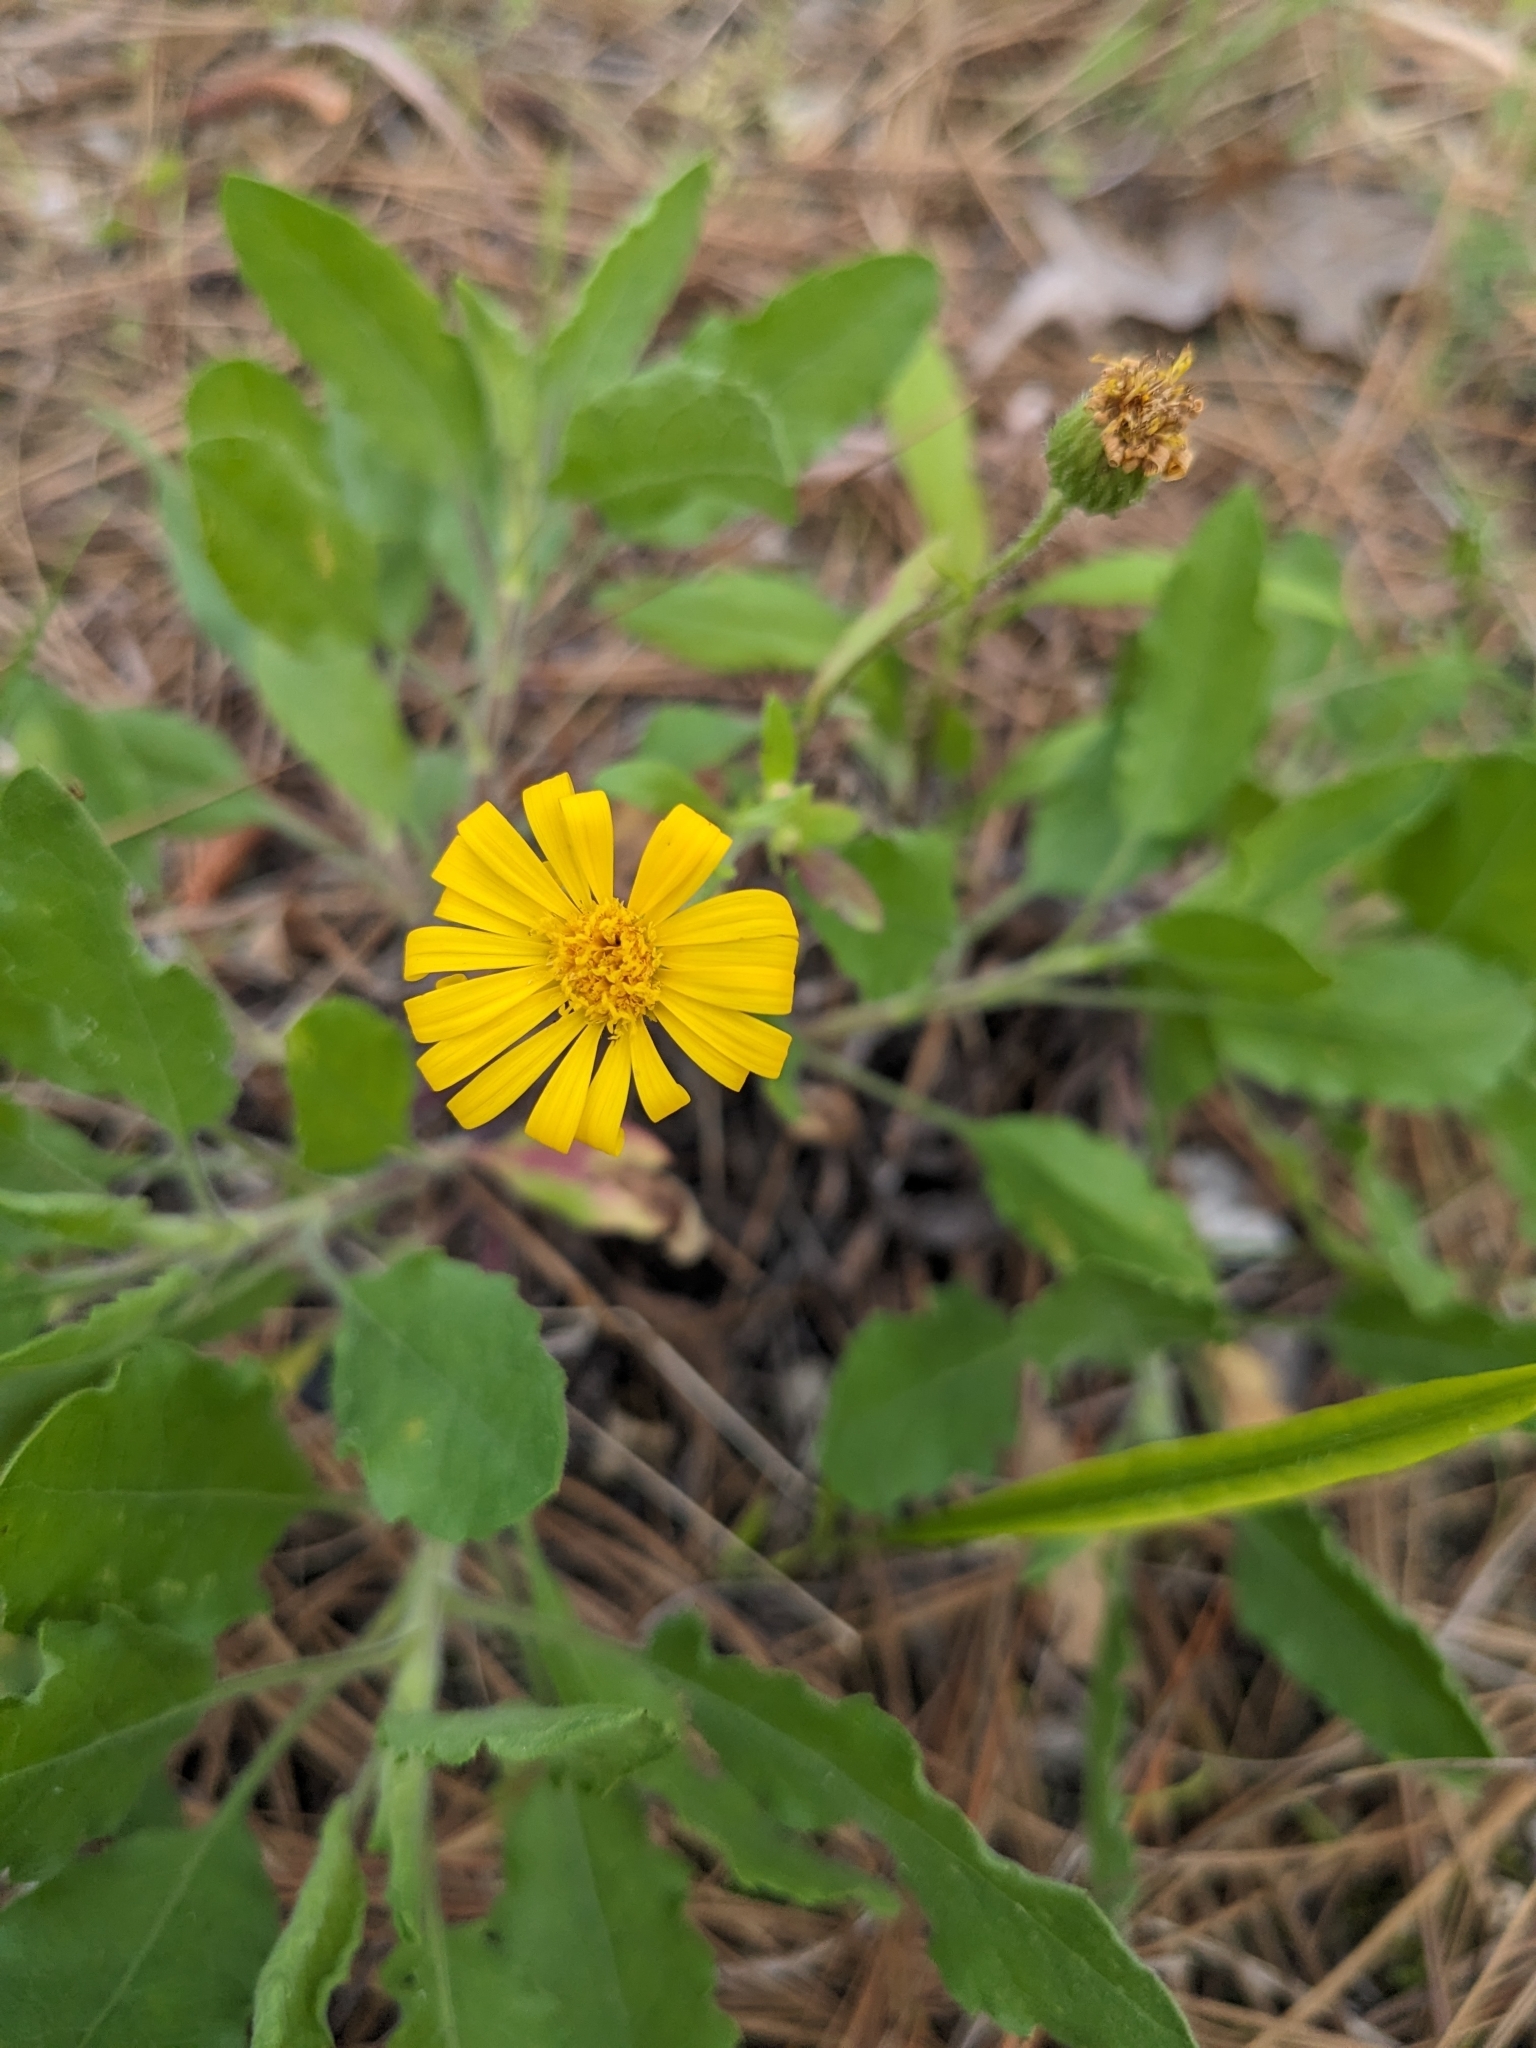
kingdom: Plantae
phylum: Tracheophyta
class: Magnoliopsida
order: Asterales
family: Asteraceae
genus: Heterotheca
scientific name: Heterotheca subaxillaris
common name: Camphorweed
